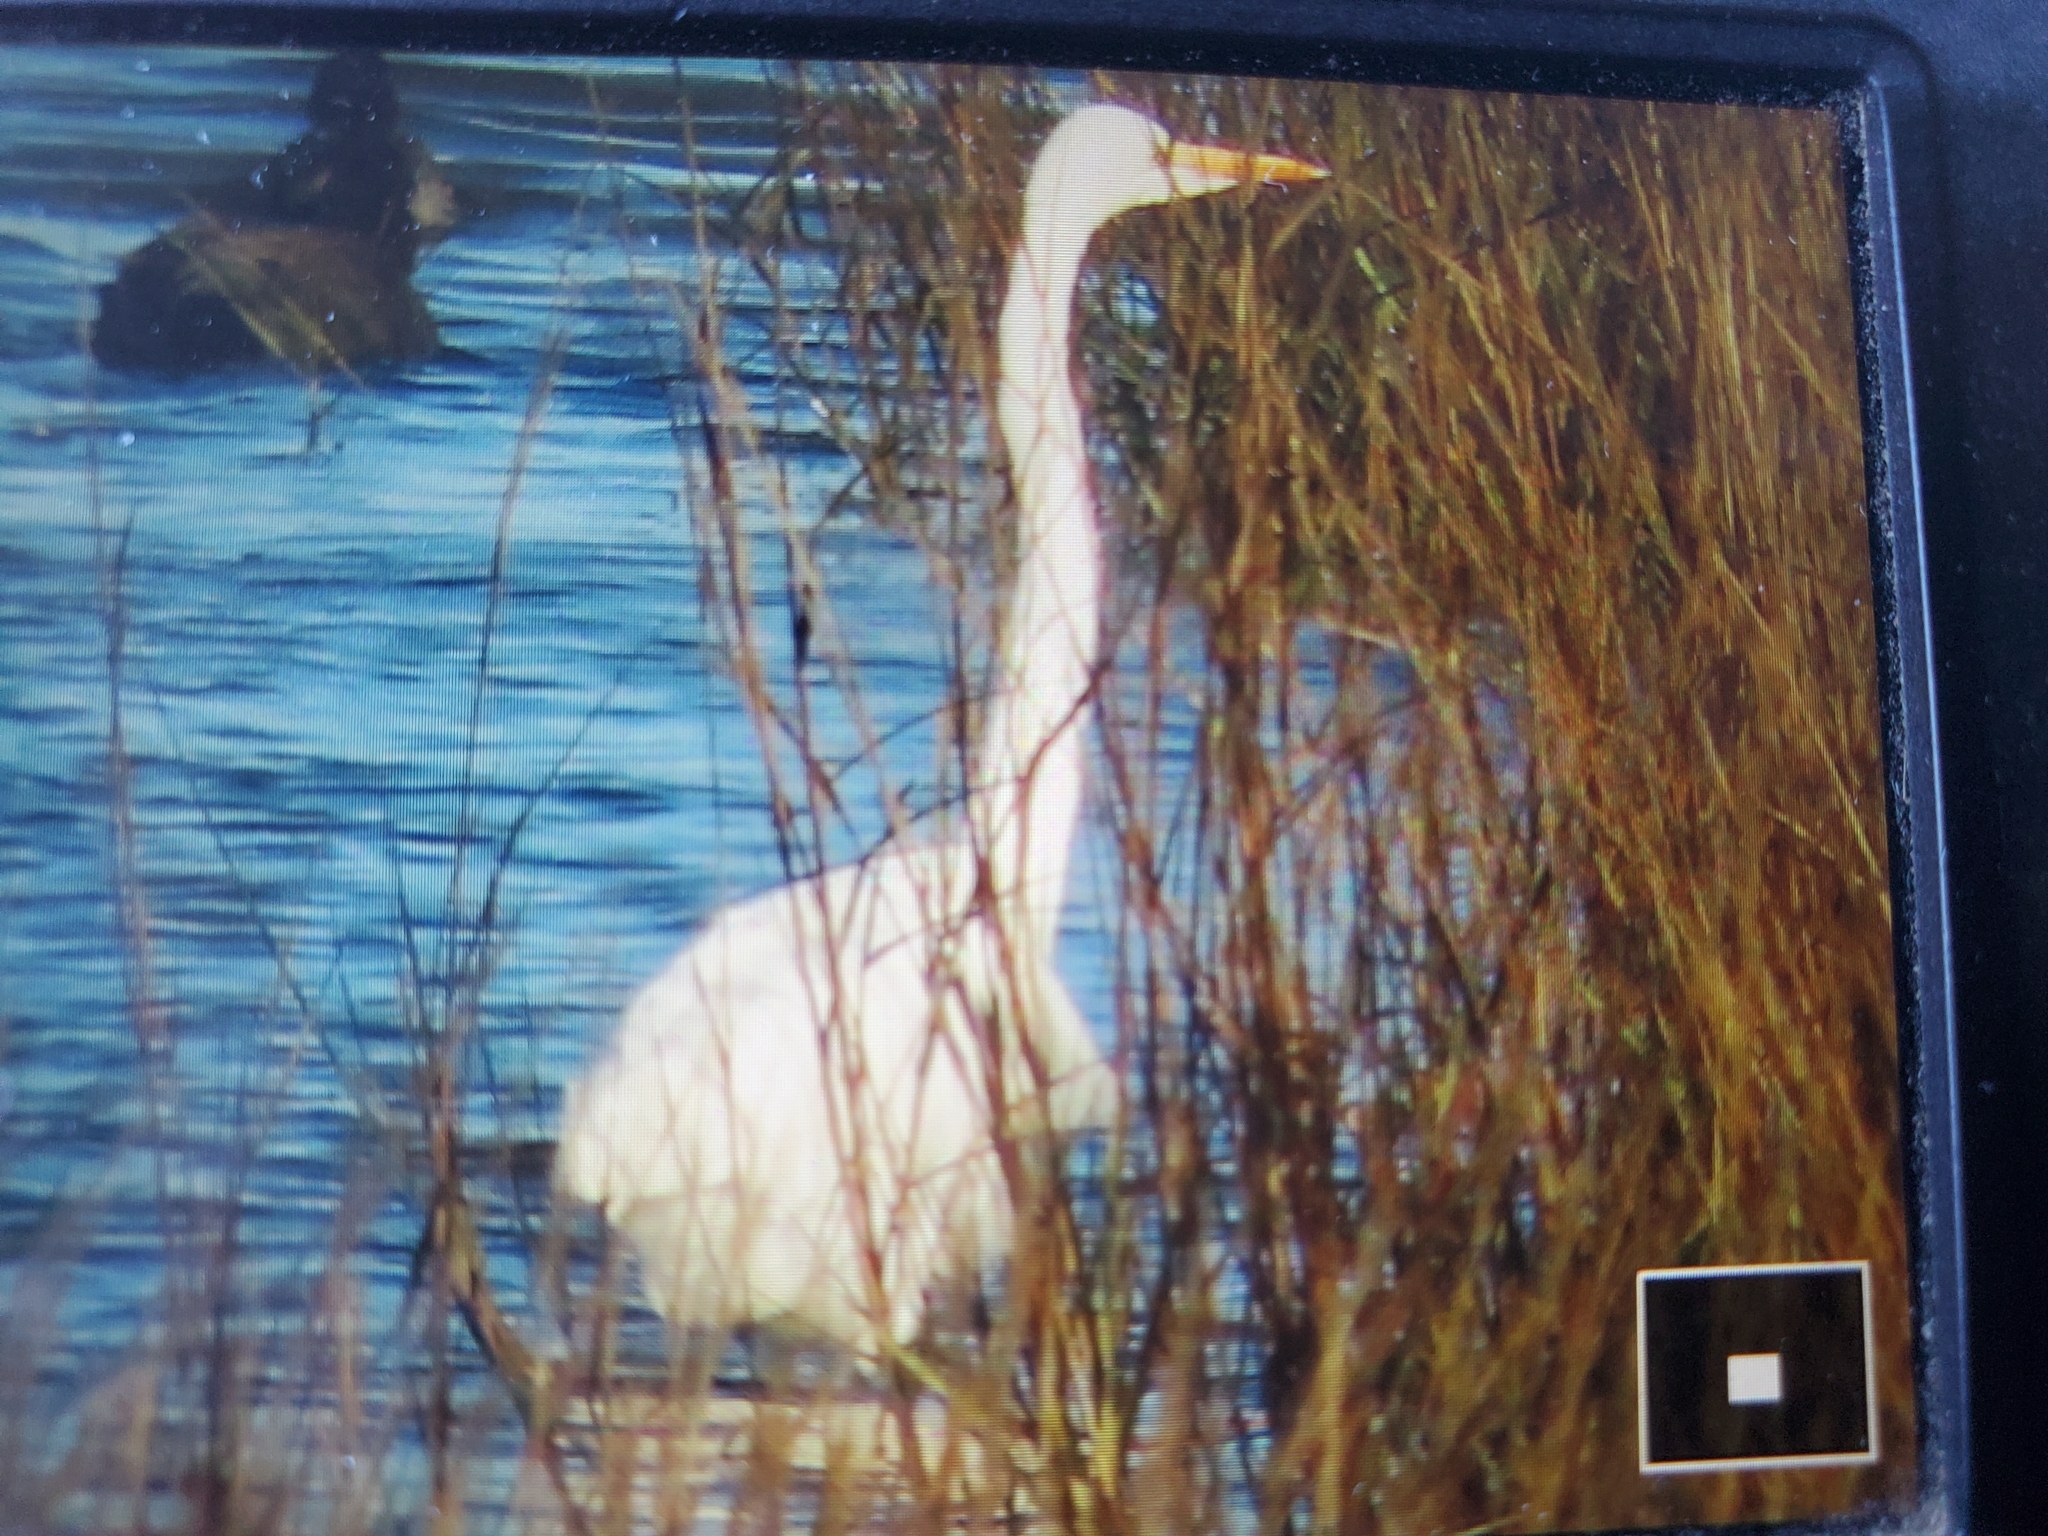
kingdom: Animalia
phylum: Chordata
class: Aves
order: Pelecaniformes
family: Ardeidae
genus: Ardea
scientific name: Ardea alba
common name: Great egret
